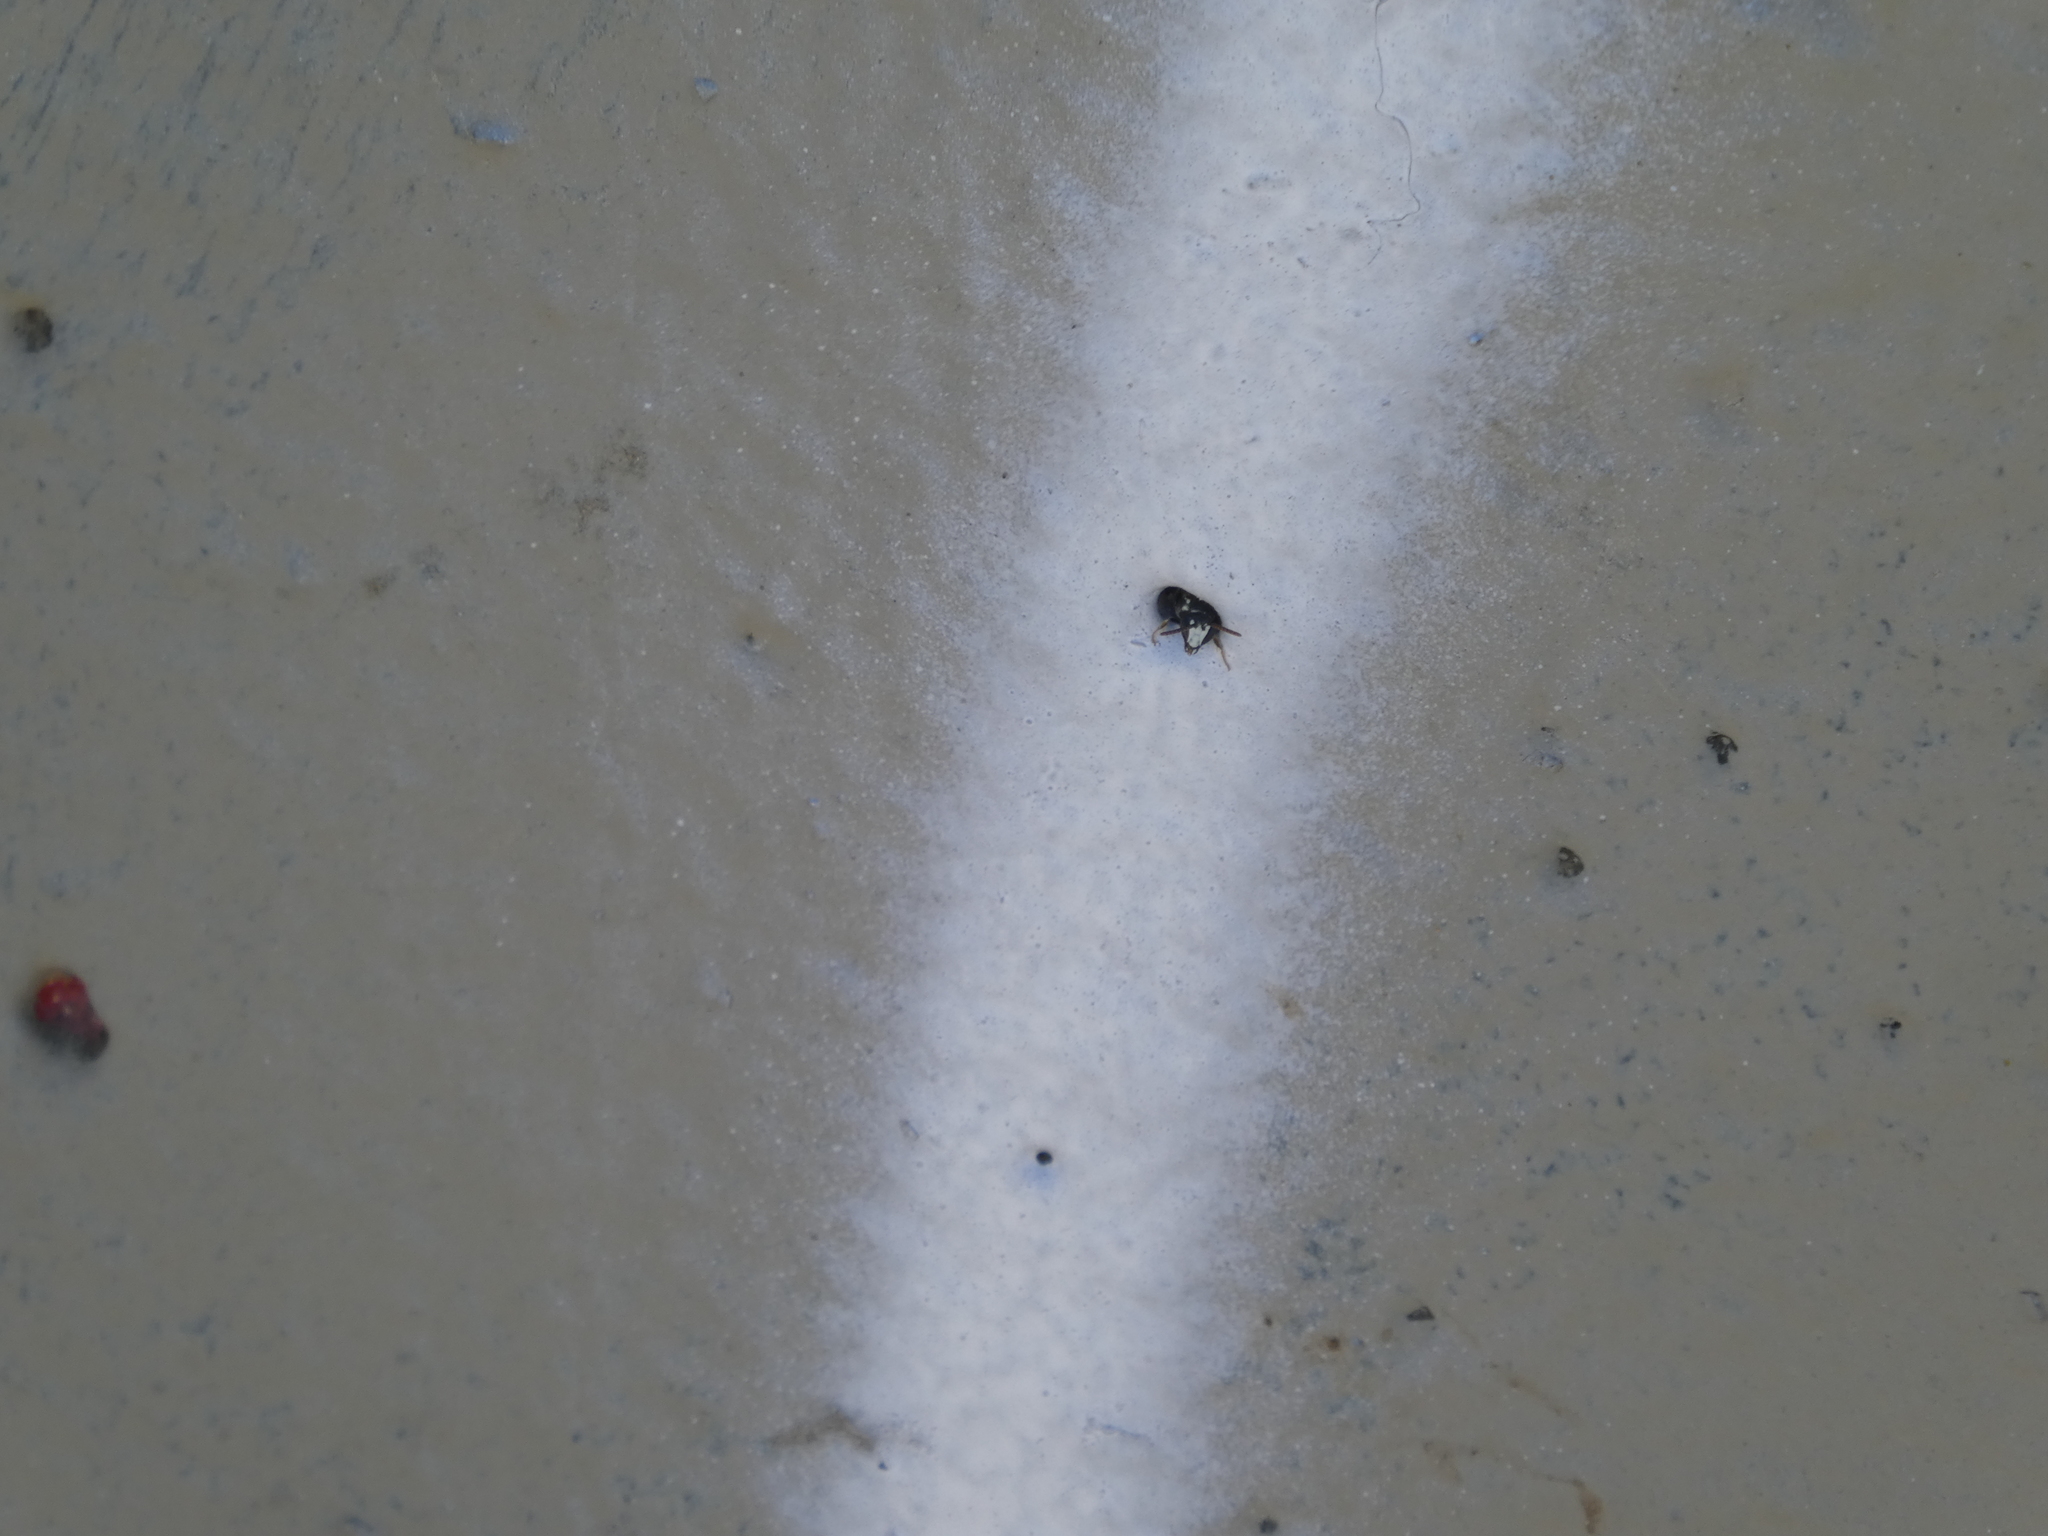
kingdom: Animalia
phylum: Arthropoda
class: Insecta
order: Hymenoptera
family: Colletidae
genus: Hylaeus
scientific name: Hylaeus leptocephalus
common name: Slender-faced masked bee
